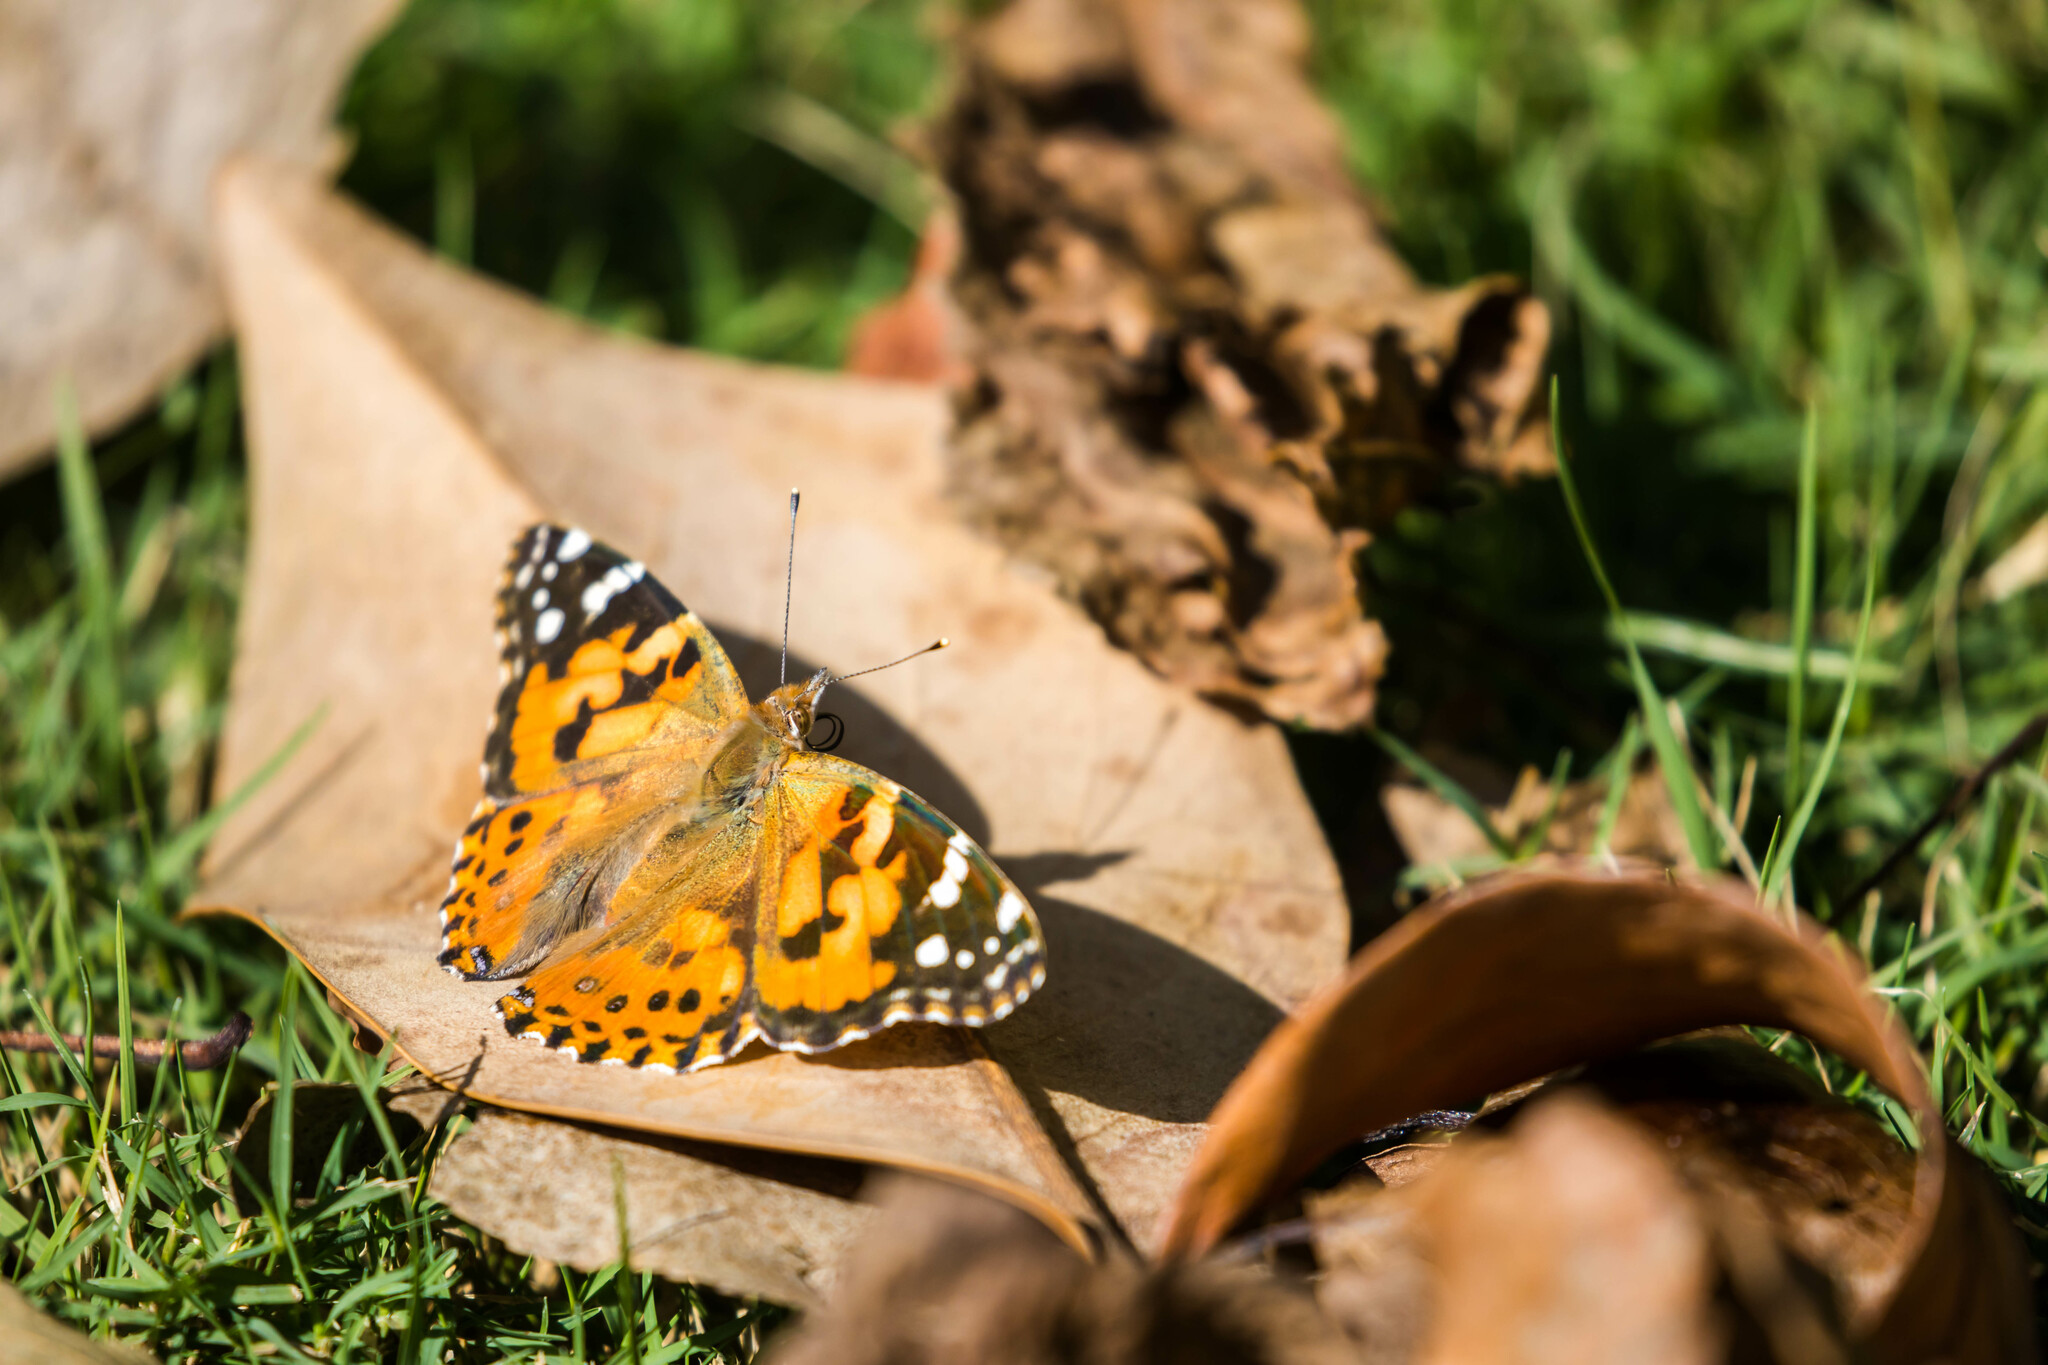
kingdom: Animalia
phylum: Arthropoda
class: Insecta
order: Lepidoptera
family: Nymphalidae
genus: Vanessa
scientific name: Vanessa cardui
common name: Painted lady
